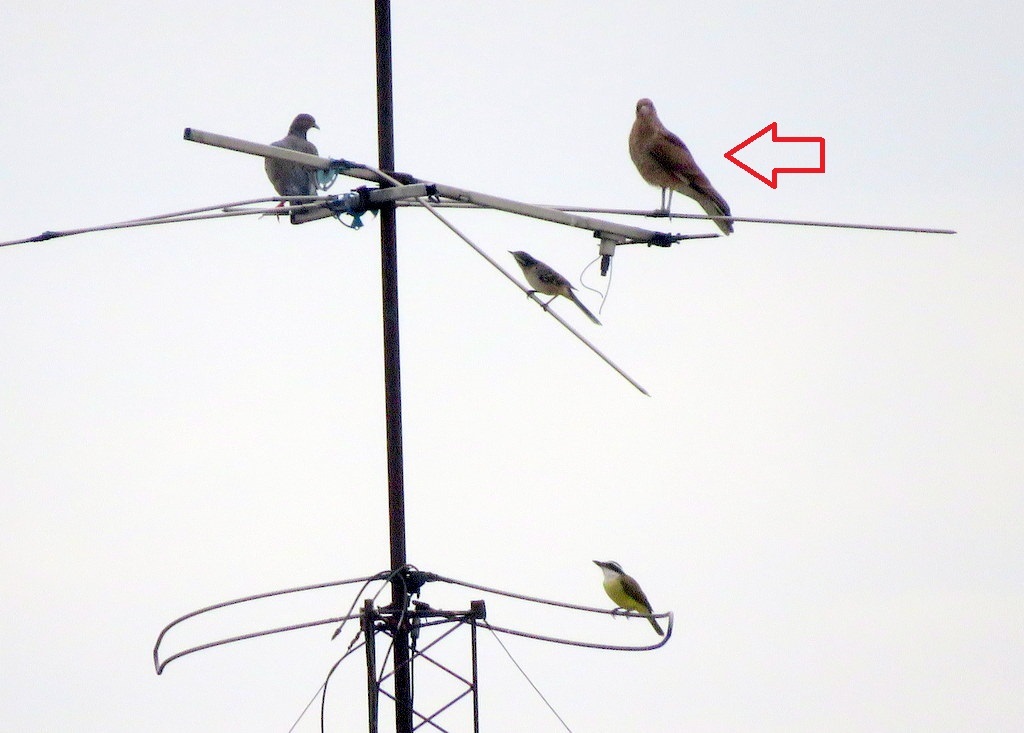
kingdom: Animalia
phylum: Chordata
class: Aves
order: Falconiformes
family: Falconidae
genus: Daptrius
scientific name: Daptrius
